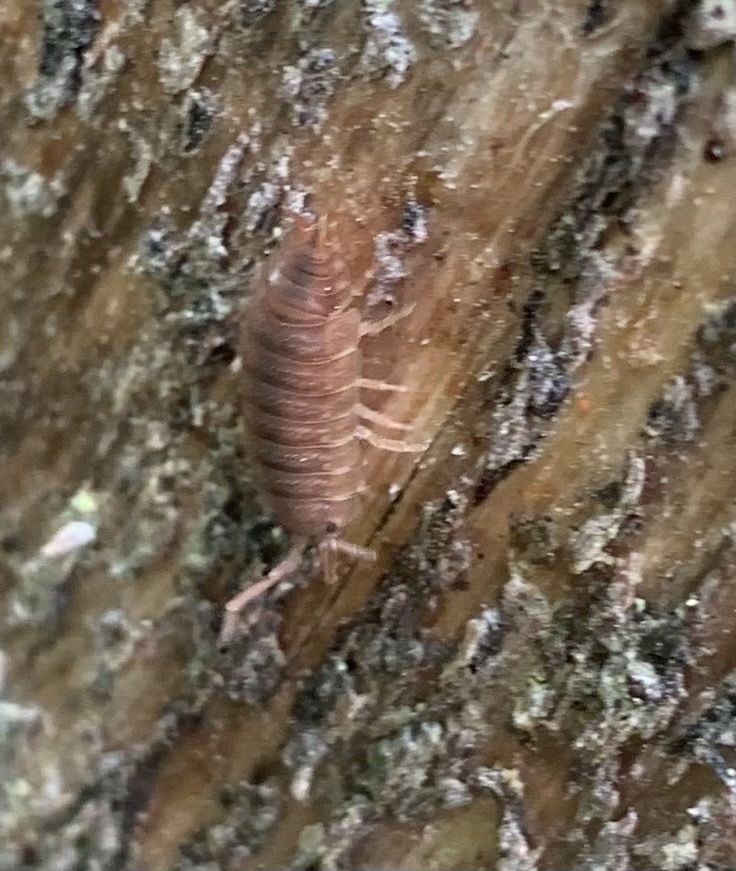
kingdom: Animalia
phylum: Arthropoda
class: Malacostraca
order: Isopoda
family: Porcellionidae
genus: Porcellio
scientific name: Porcellio scaber
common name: Common rough woodlouse
